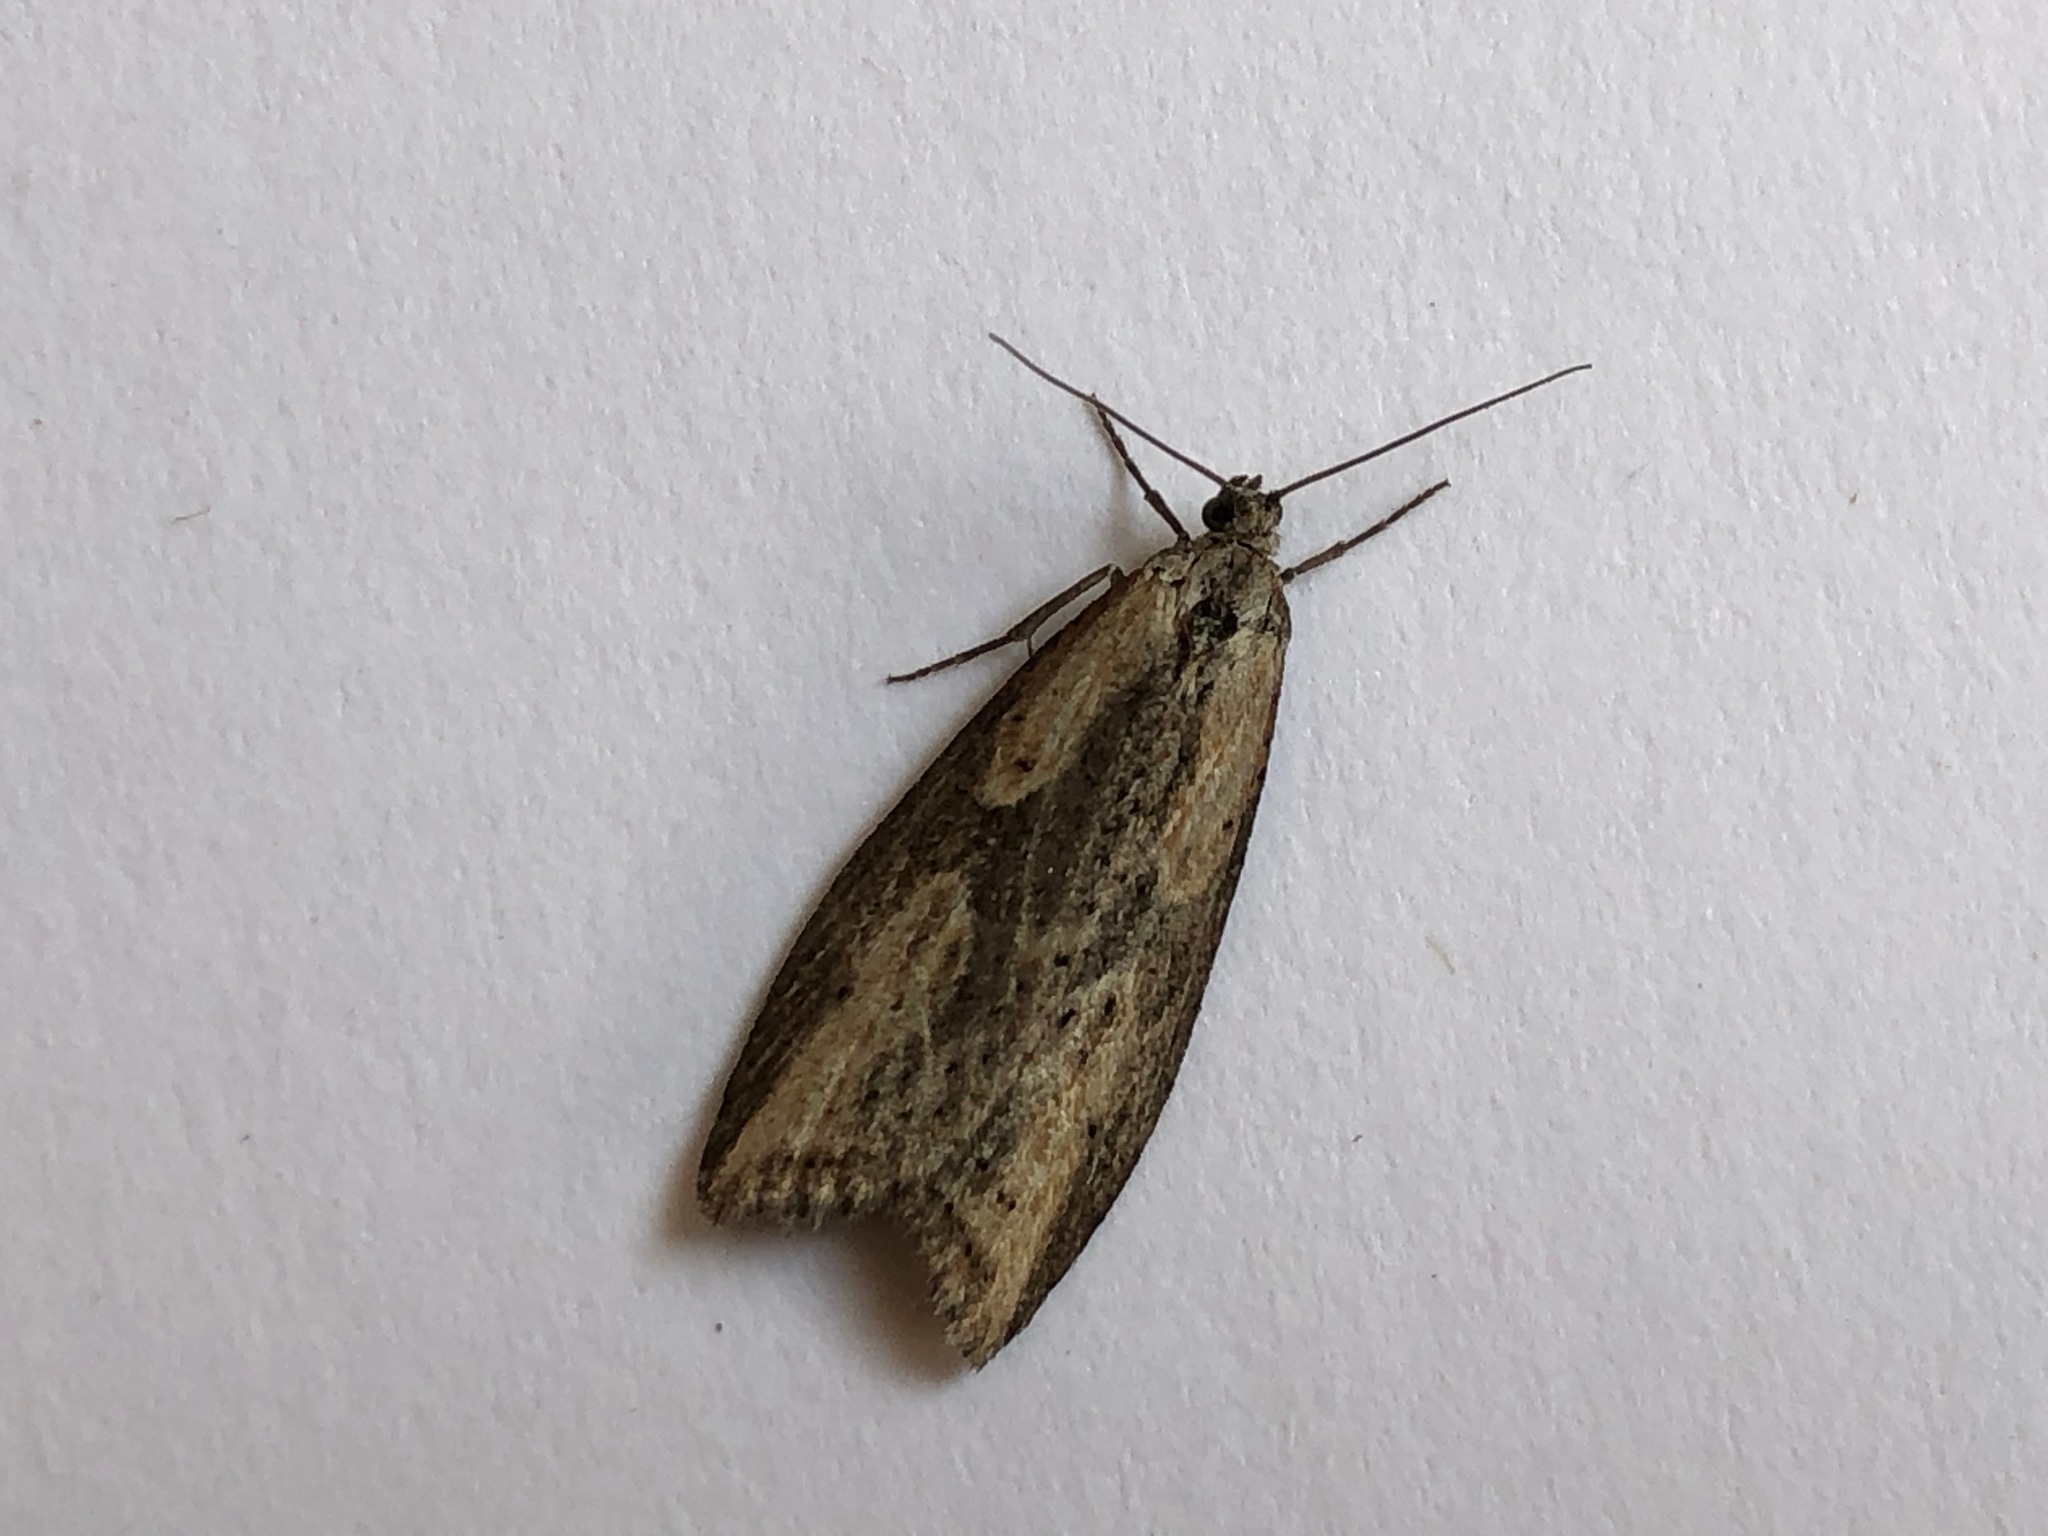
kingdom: Animalia
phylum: Arthropoda
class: Insecta
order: Lepidoptera
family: Tortricidae
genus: Doloploca
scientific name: Doloploca punctulana
